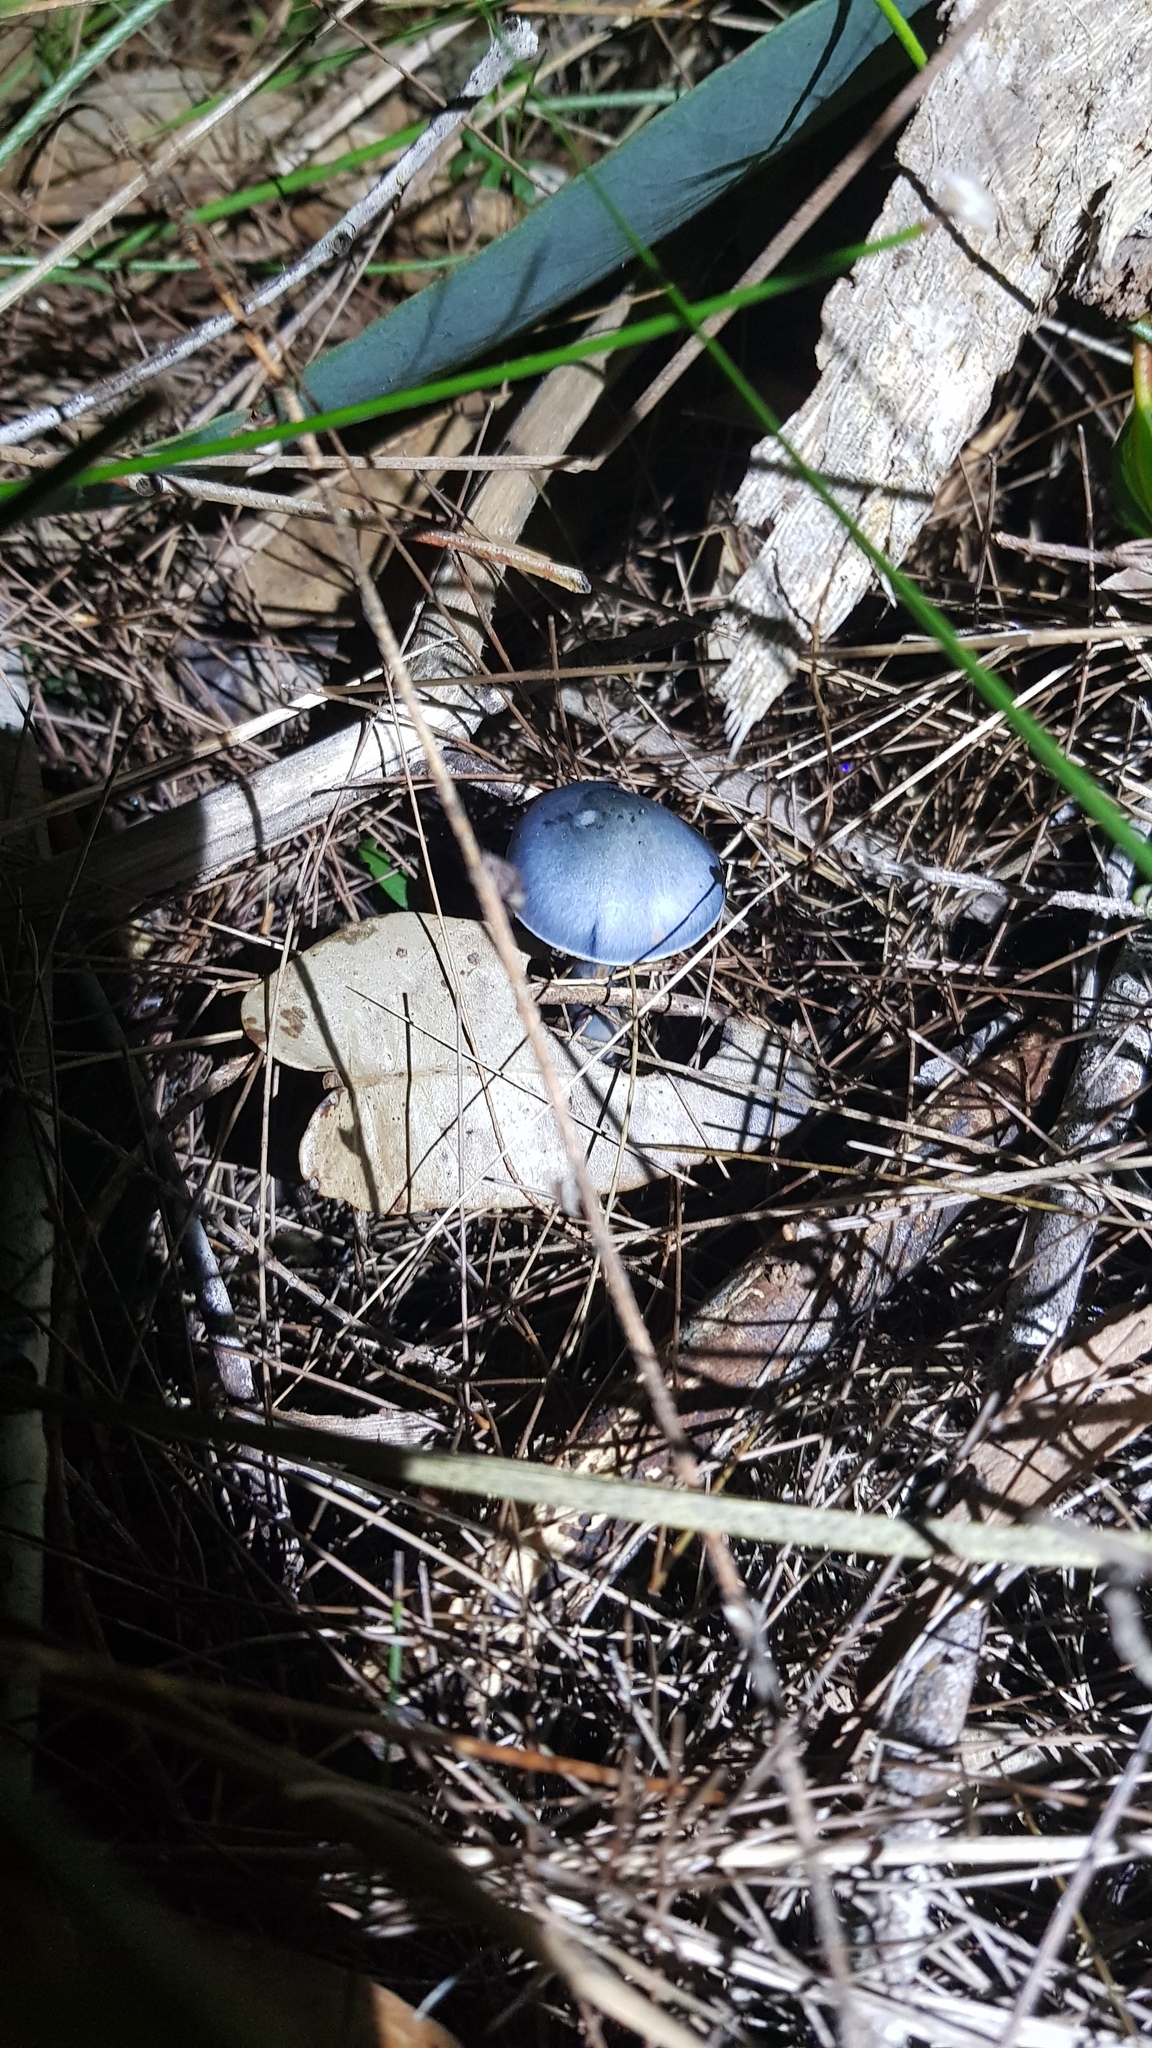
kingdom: Fungi
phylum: Basidiomycota
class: Agaricomycetes
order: Agaricales
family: Cortinariaceae
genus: Cortinarius
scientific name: Cortinarius rotundisporus
